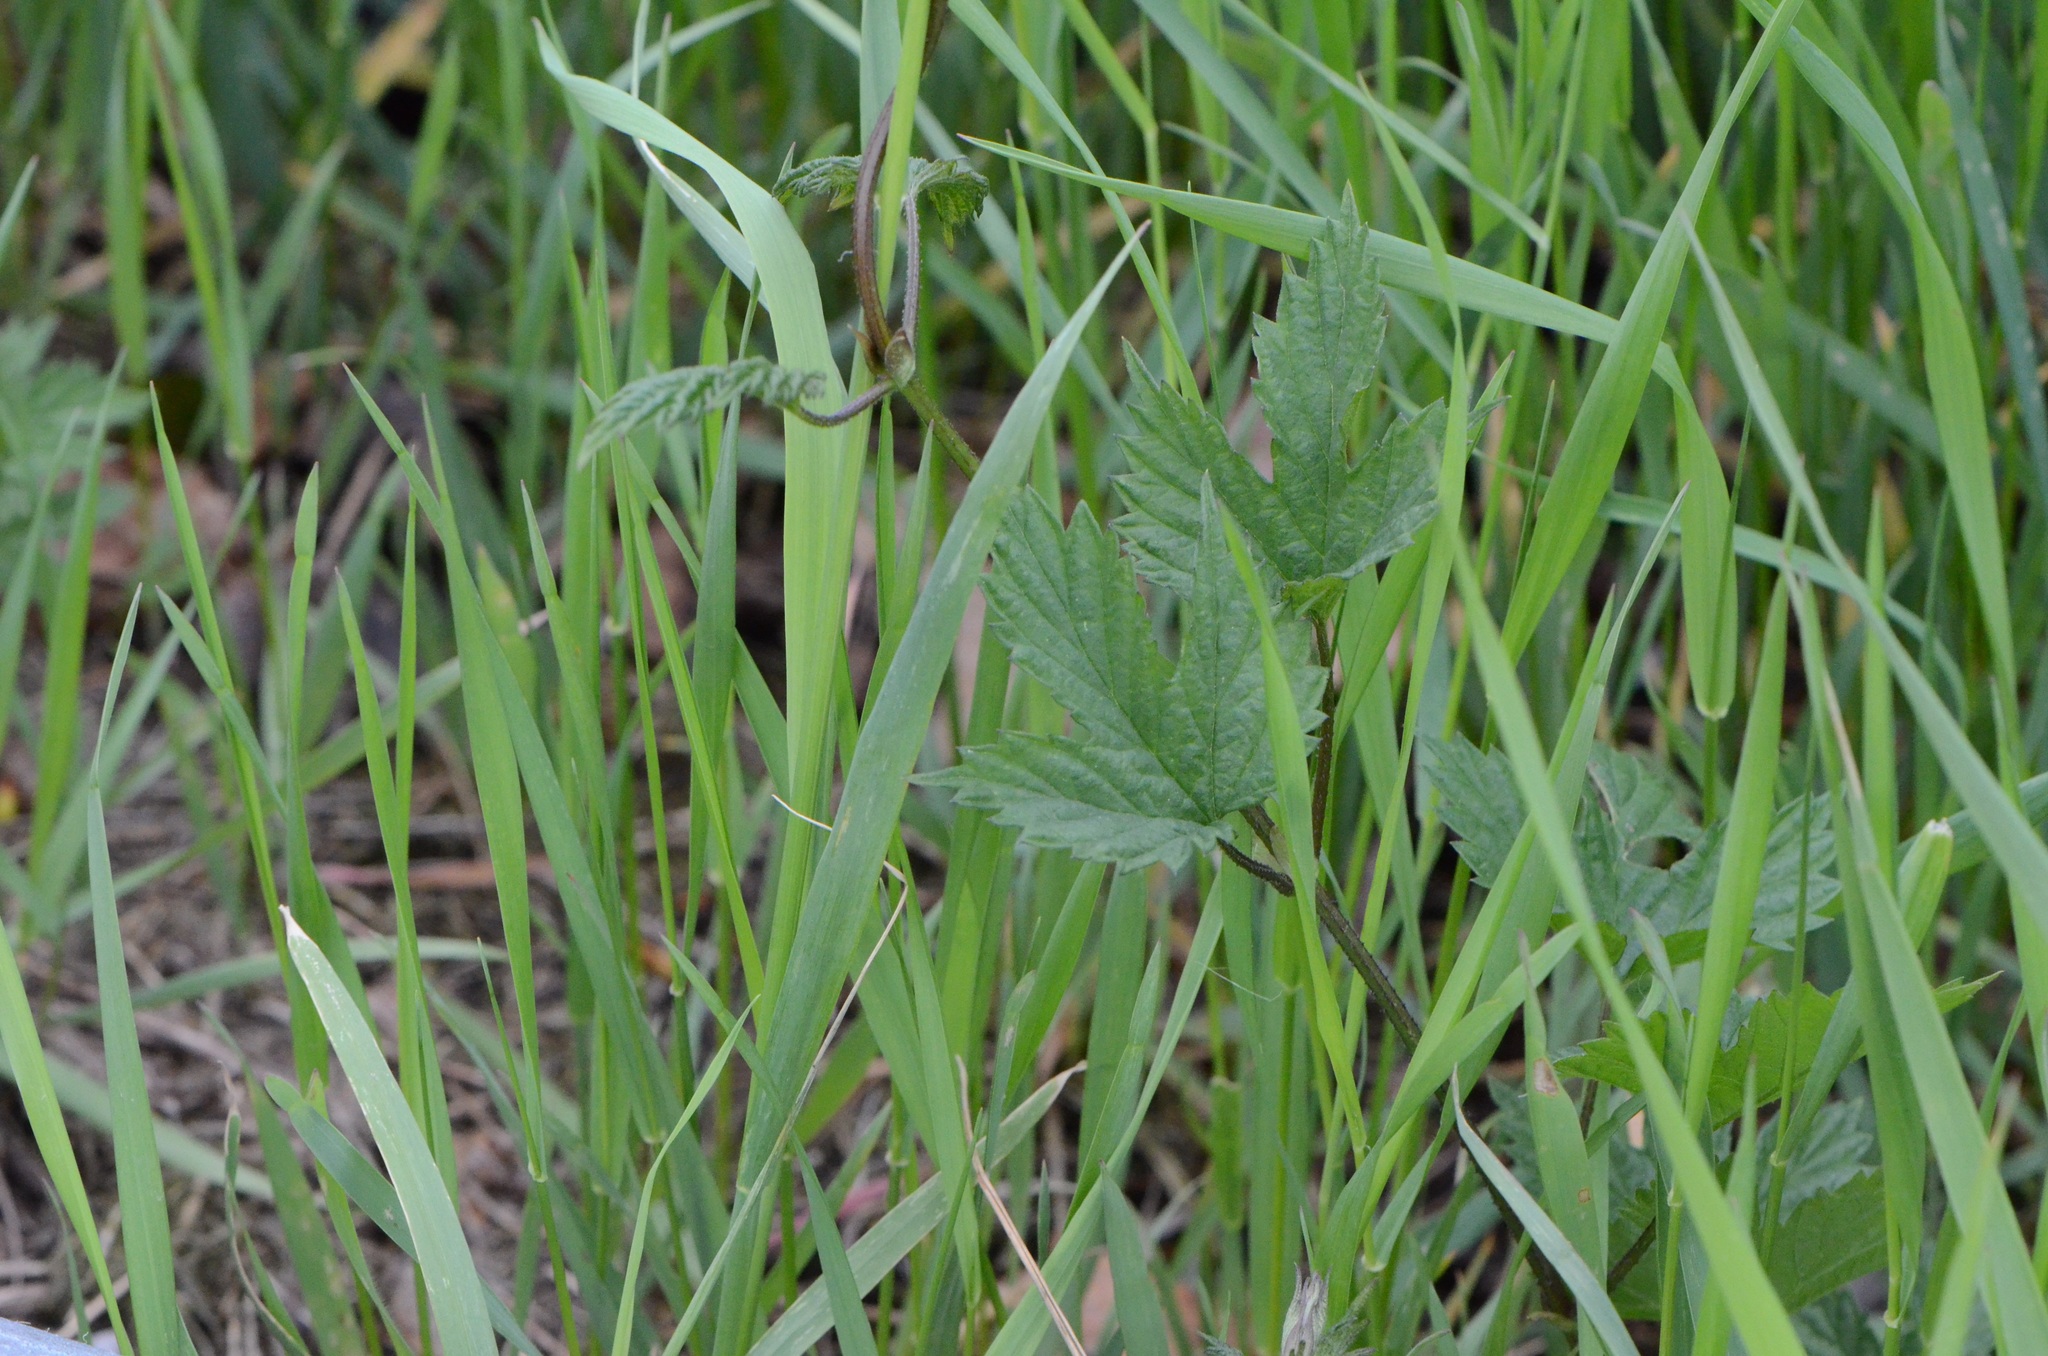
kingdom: Plantae
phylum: Tracheophyta
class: Magnoliopsida
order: Rosales
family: Cannabaceae
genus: Humulus
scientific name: Humulus lupulus
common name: Hop
